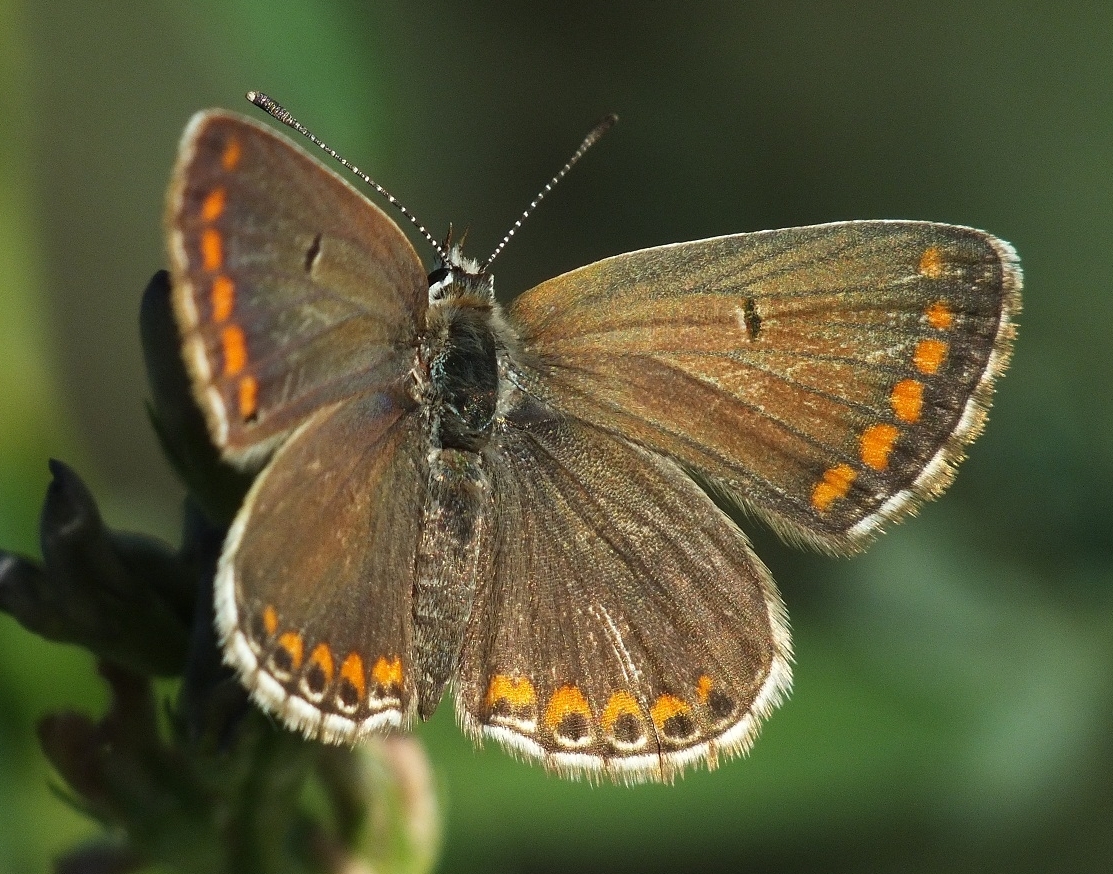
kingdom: Animalia
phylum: Arthropoda
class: Insecta
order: Lepidoptera
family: Lycaenidae
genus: Aricia
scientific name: Aricia agestis
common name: Brown argus
